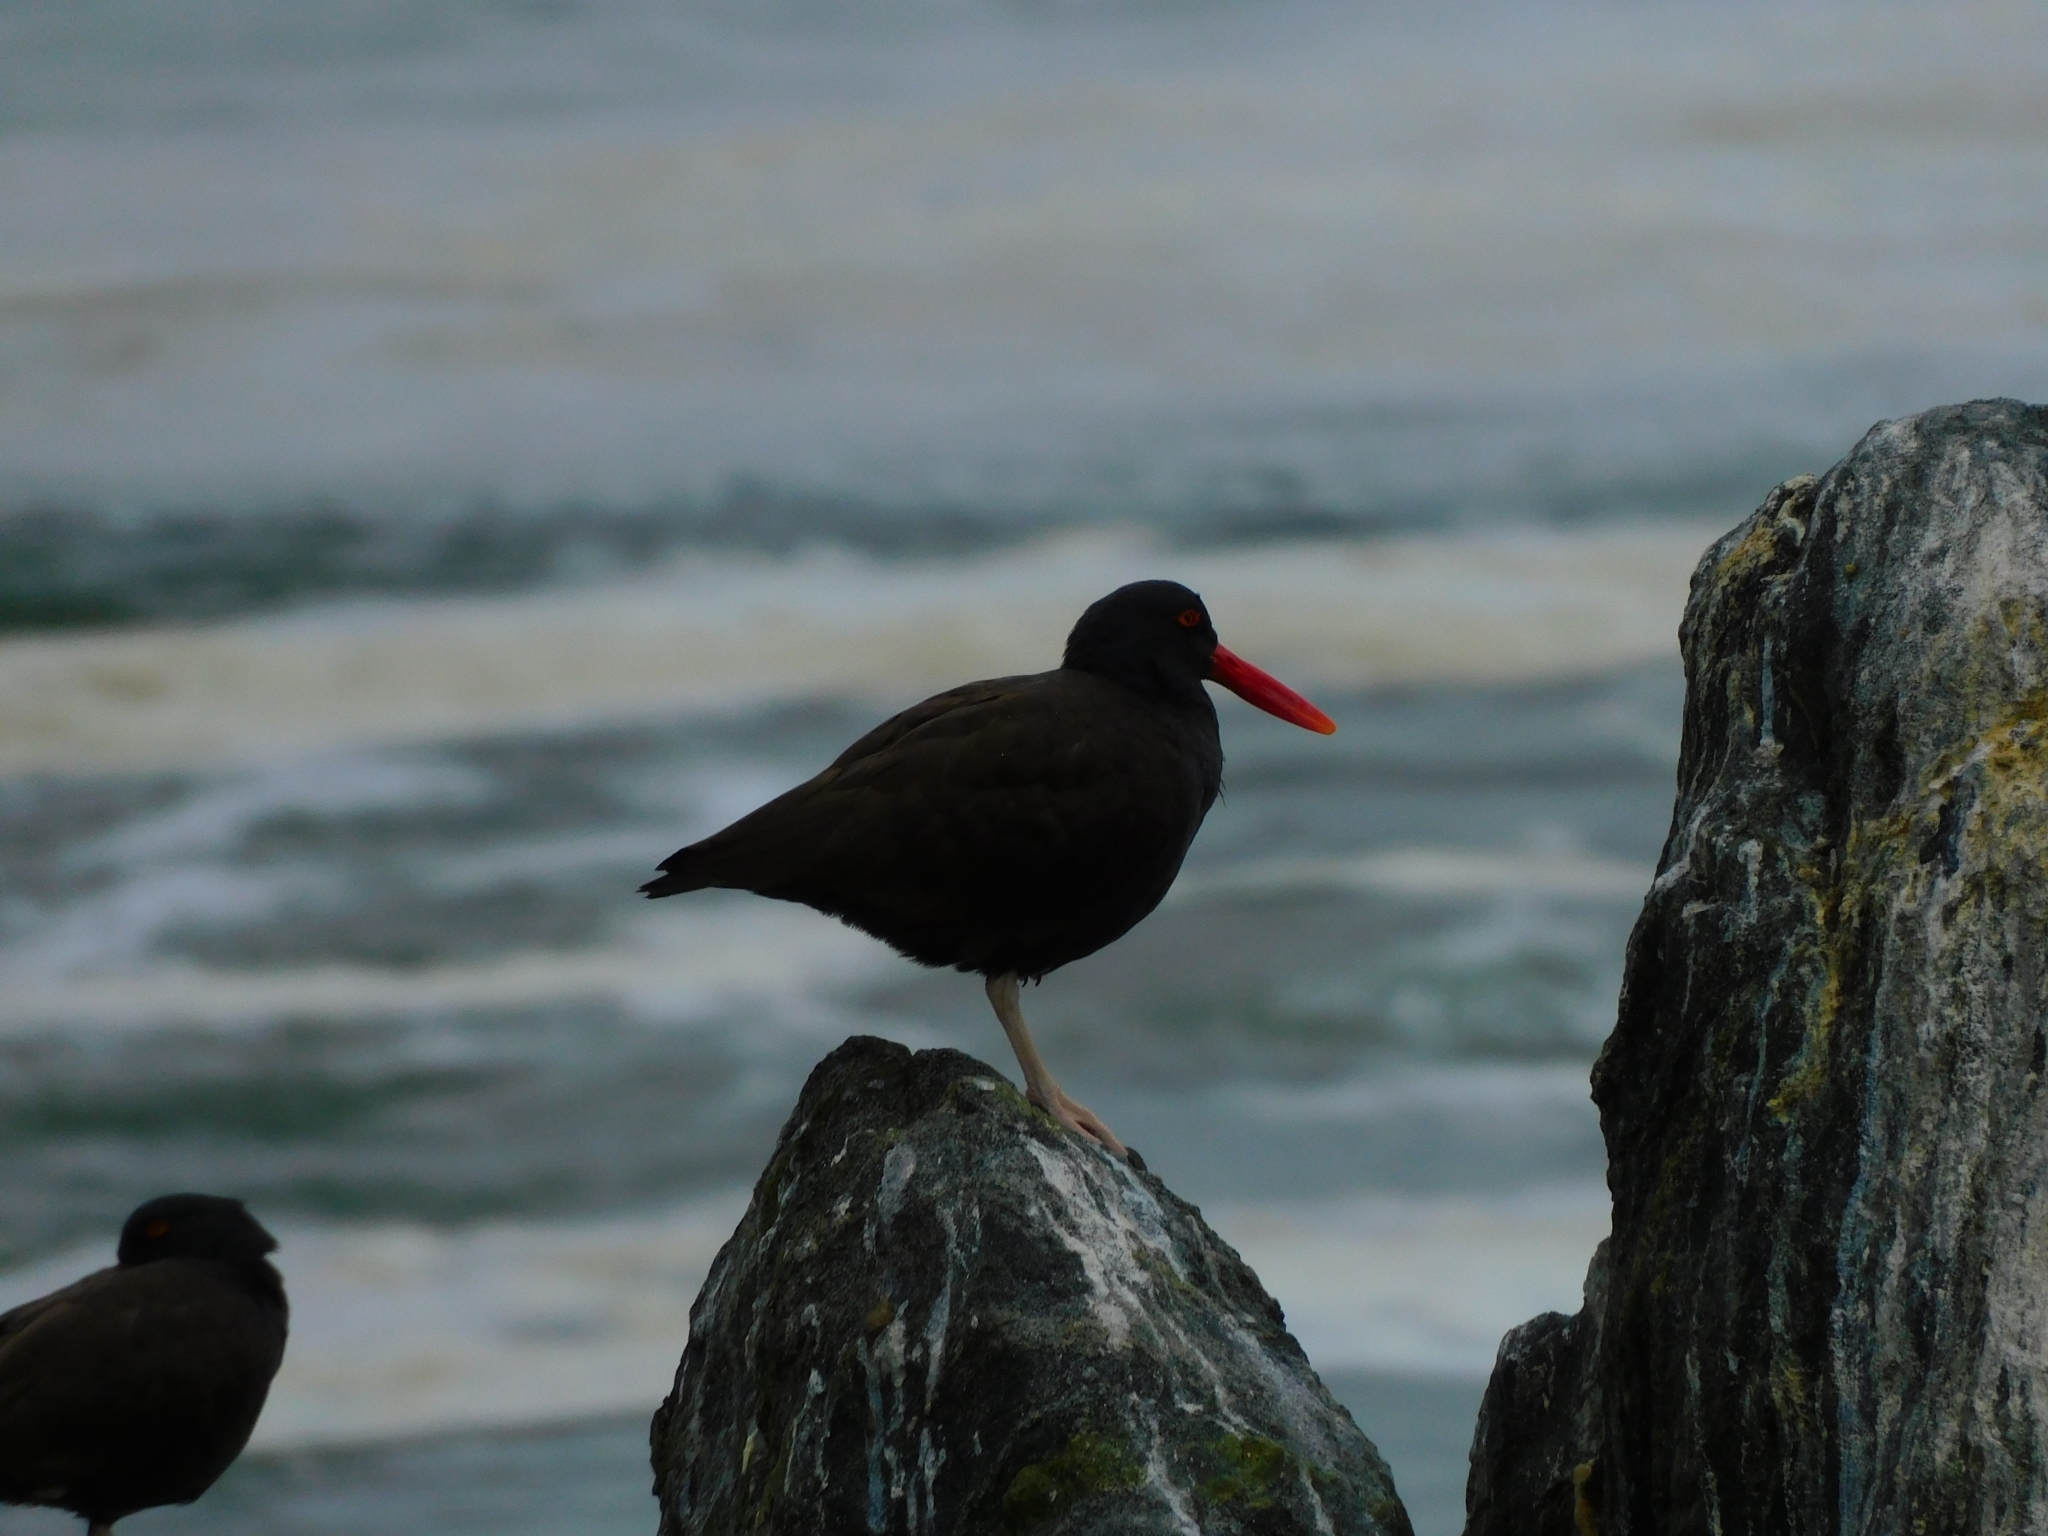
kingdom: Animalia
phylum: Chordata
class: Aves
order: Charadriiformes
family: Haematopodidae
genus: Haematopus
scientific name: Haematopus ater
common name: Blackish oystercatcher
